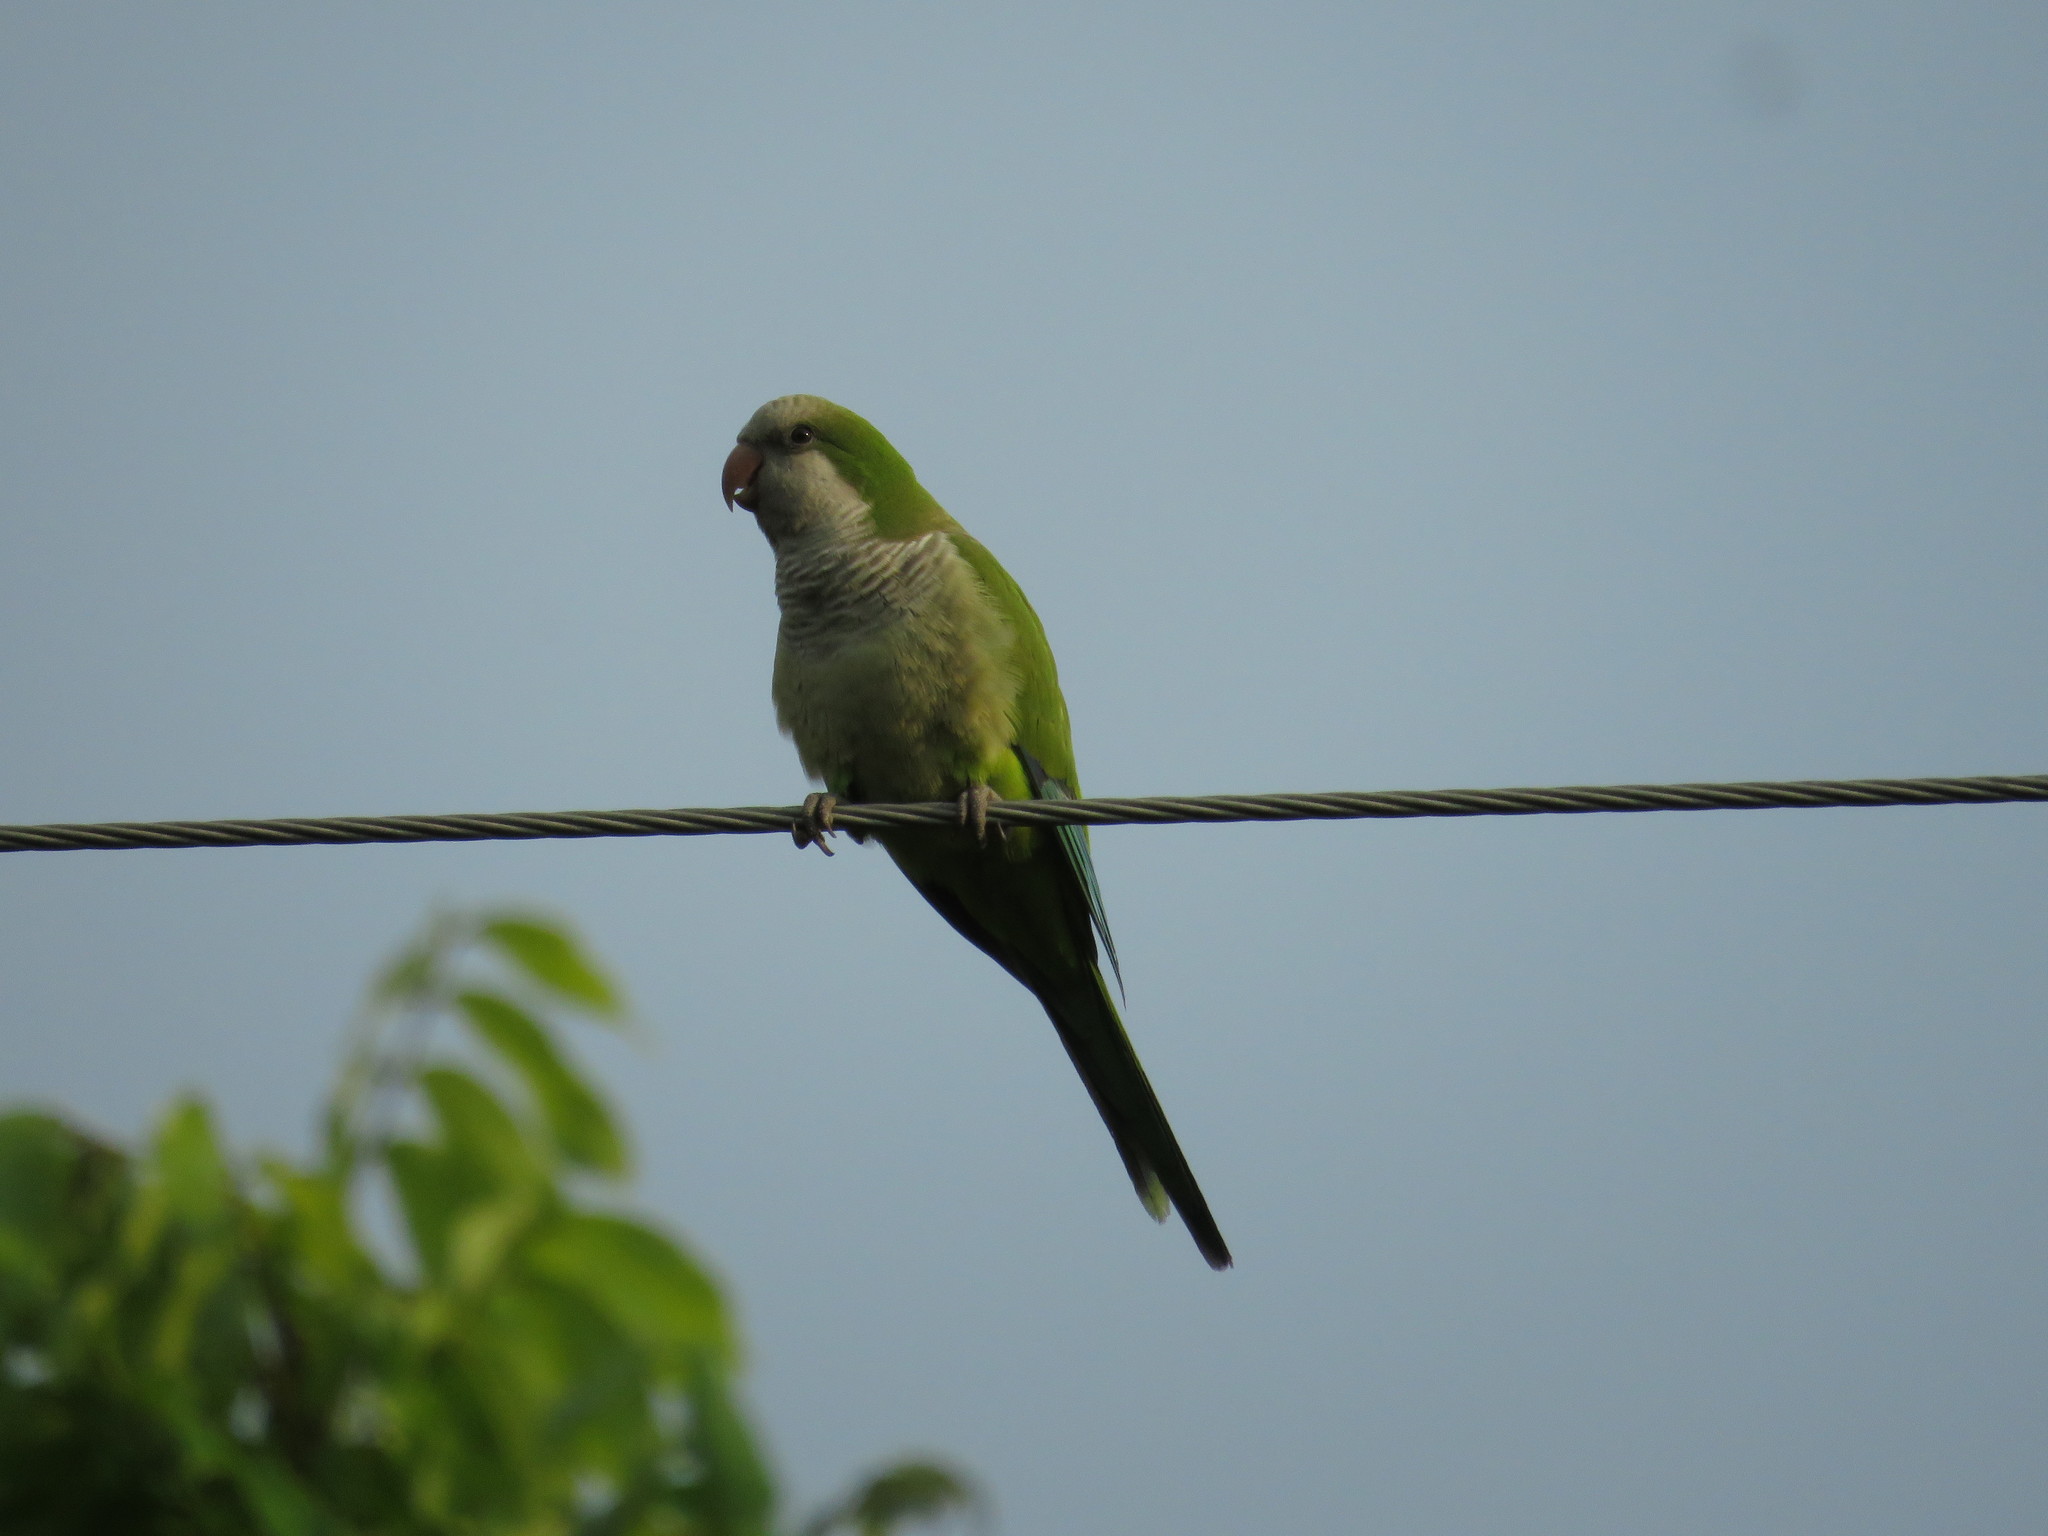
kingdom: Animalia
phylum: Chordata
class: Aves
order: Psittaciformes
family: Psittacidae
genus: Myiopsitta
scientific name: Myiopsitta monachus
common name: Monk parakeet
